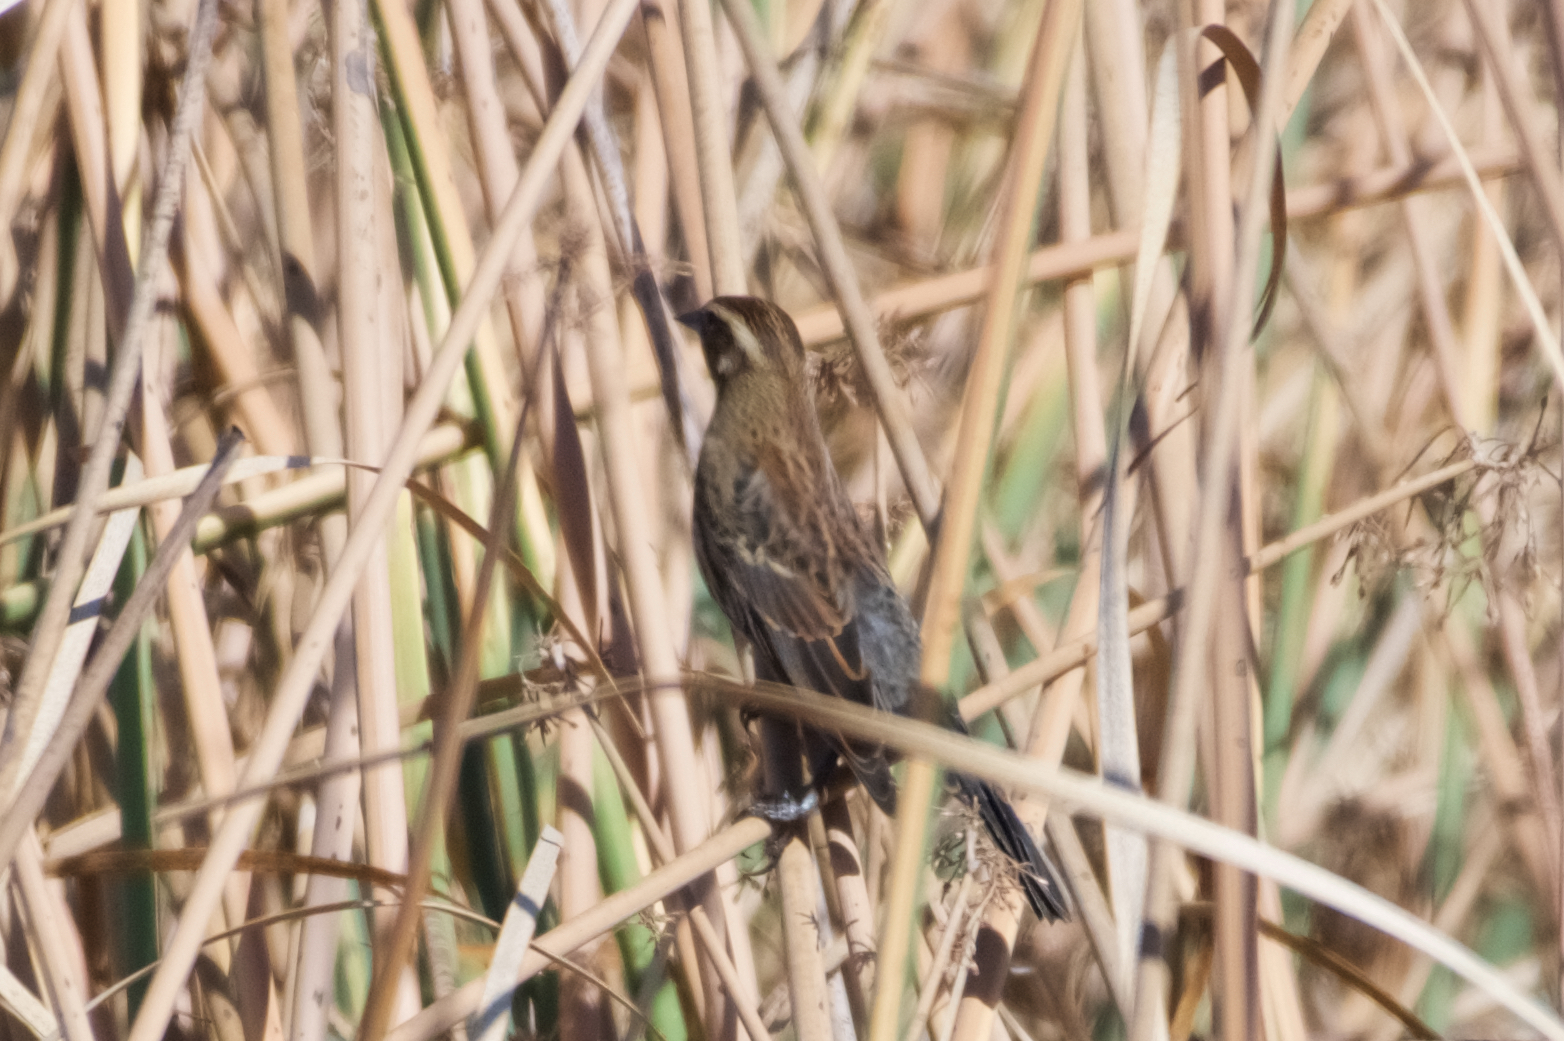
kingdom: Animalia
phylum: Chordata
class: Aves
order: Passeriformes
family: Icteridae
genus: Agelaius
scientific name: Agelaius phoeniceus
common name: Red-winged blackbird
